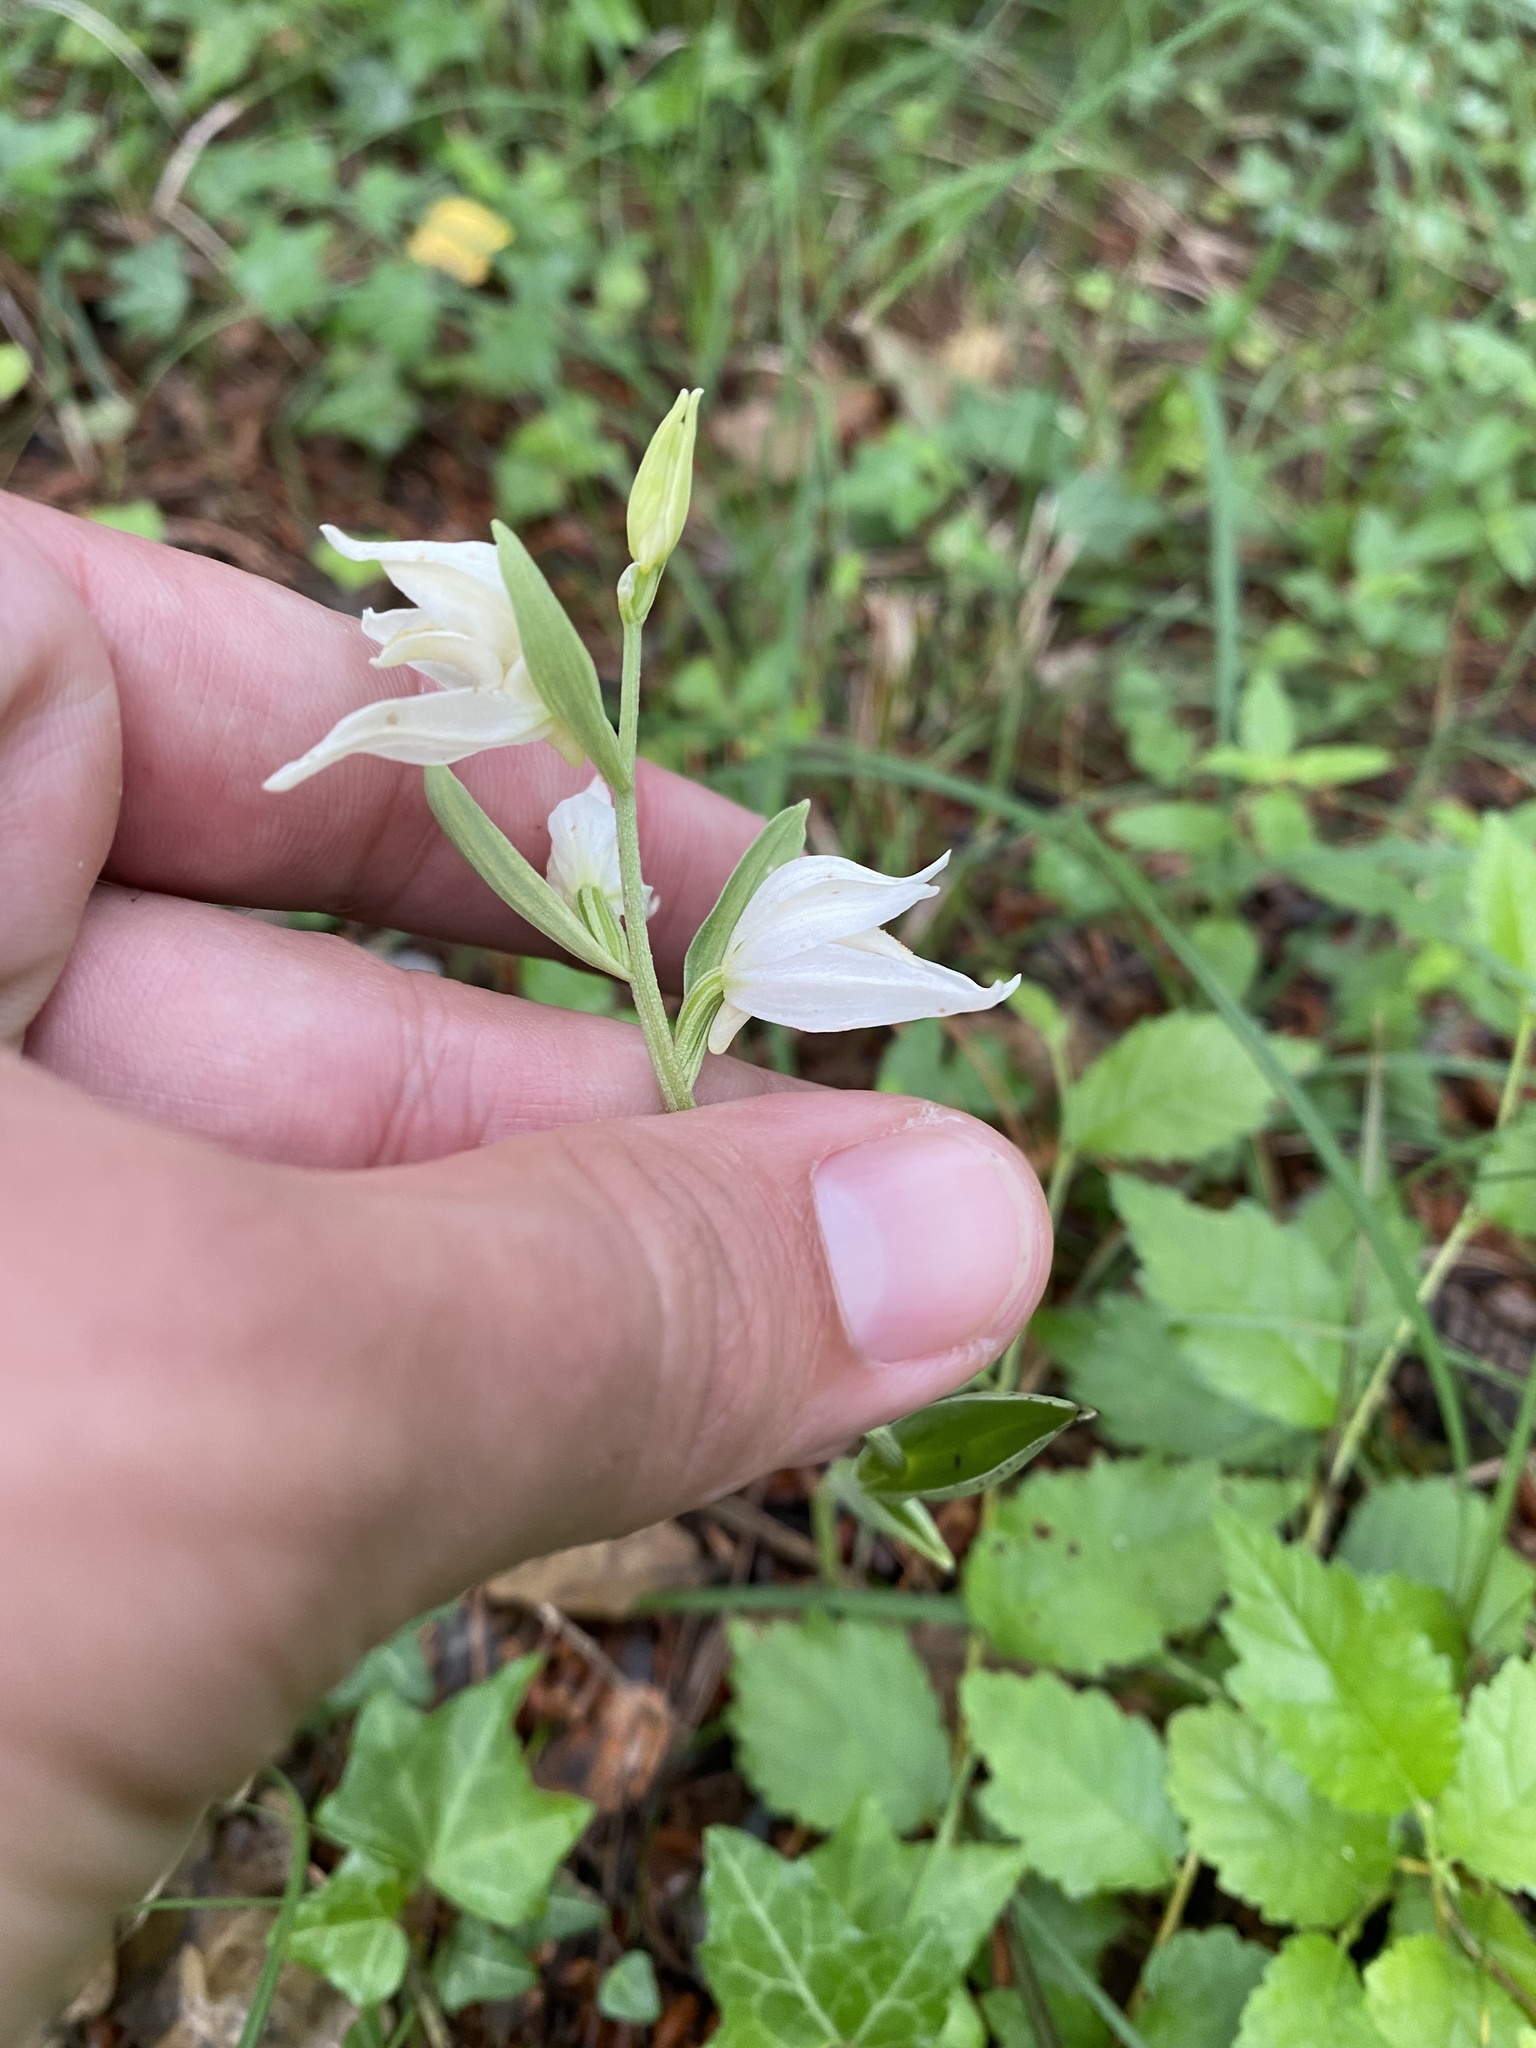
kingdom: Plantae
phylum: Tracheophyta
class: Liliopsida
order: Asparagales
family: Orchidaceae
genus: Cephalanthera
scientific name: Cephalanthera epipactoides
